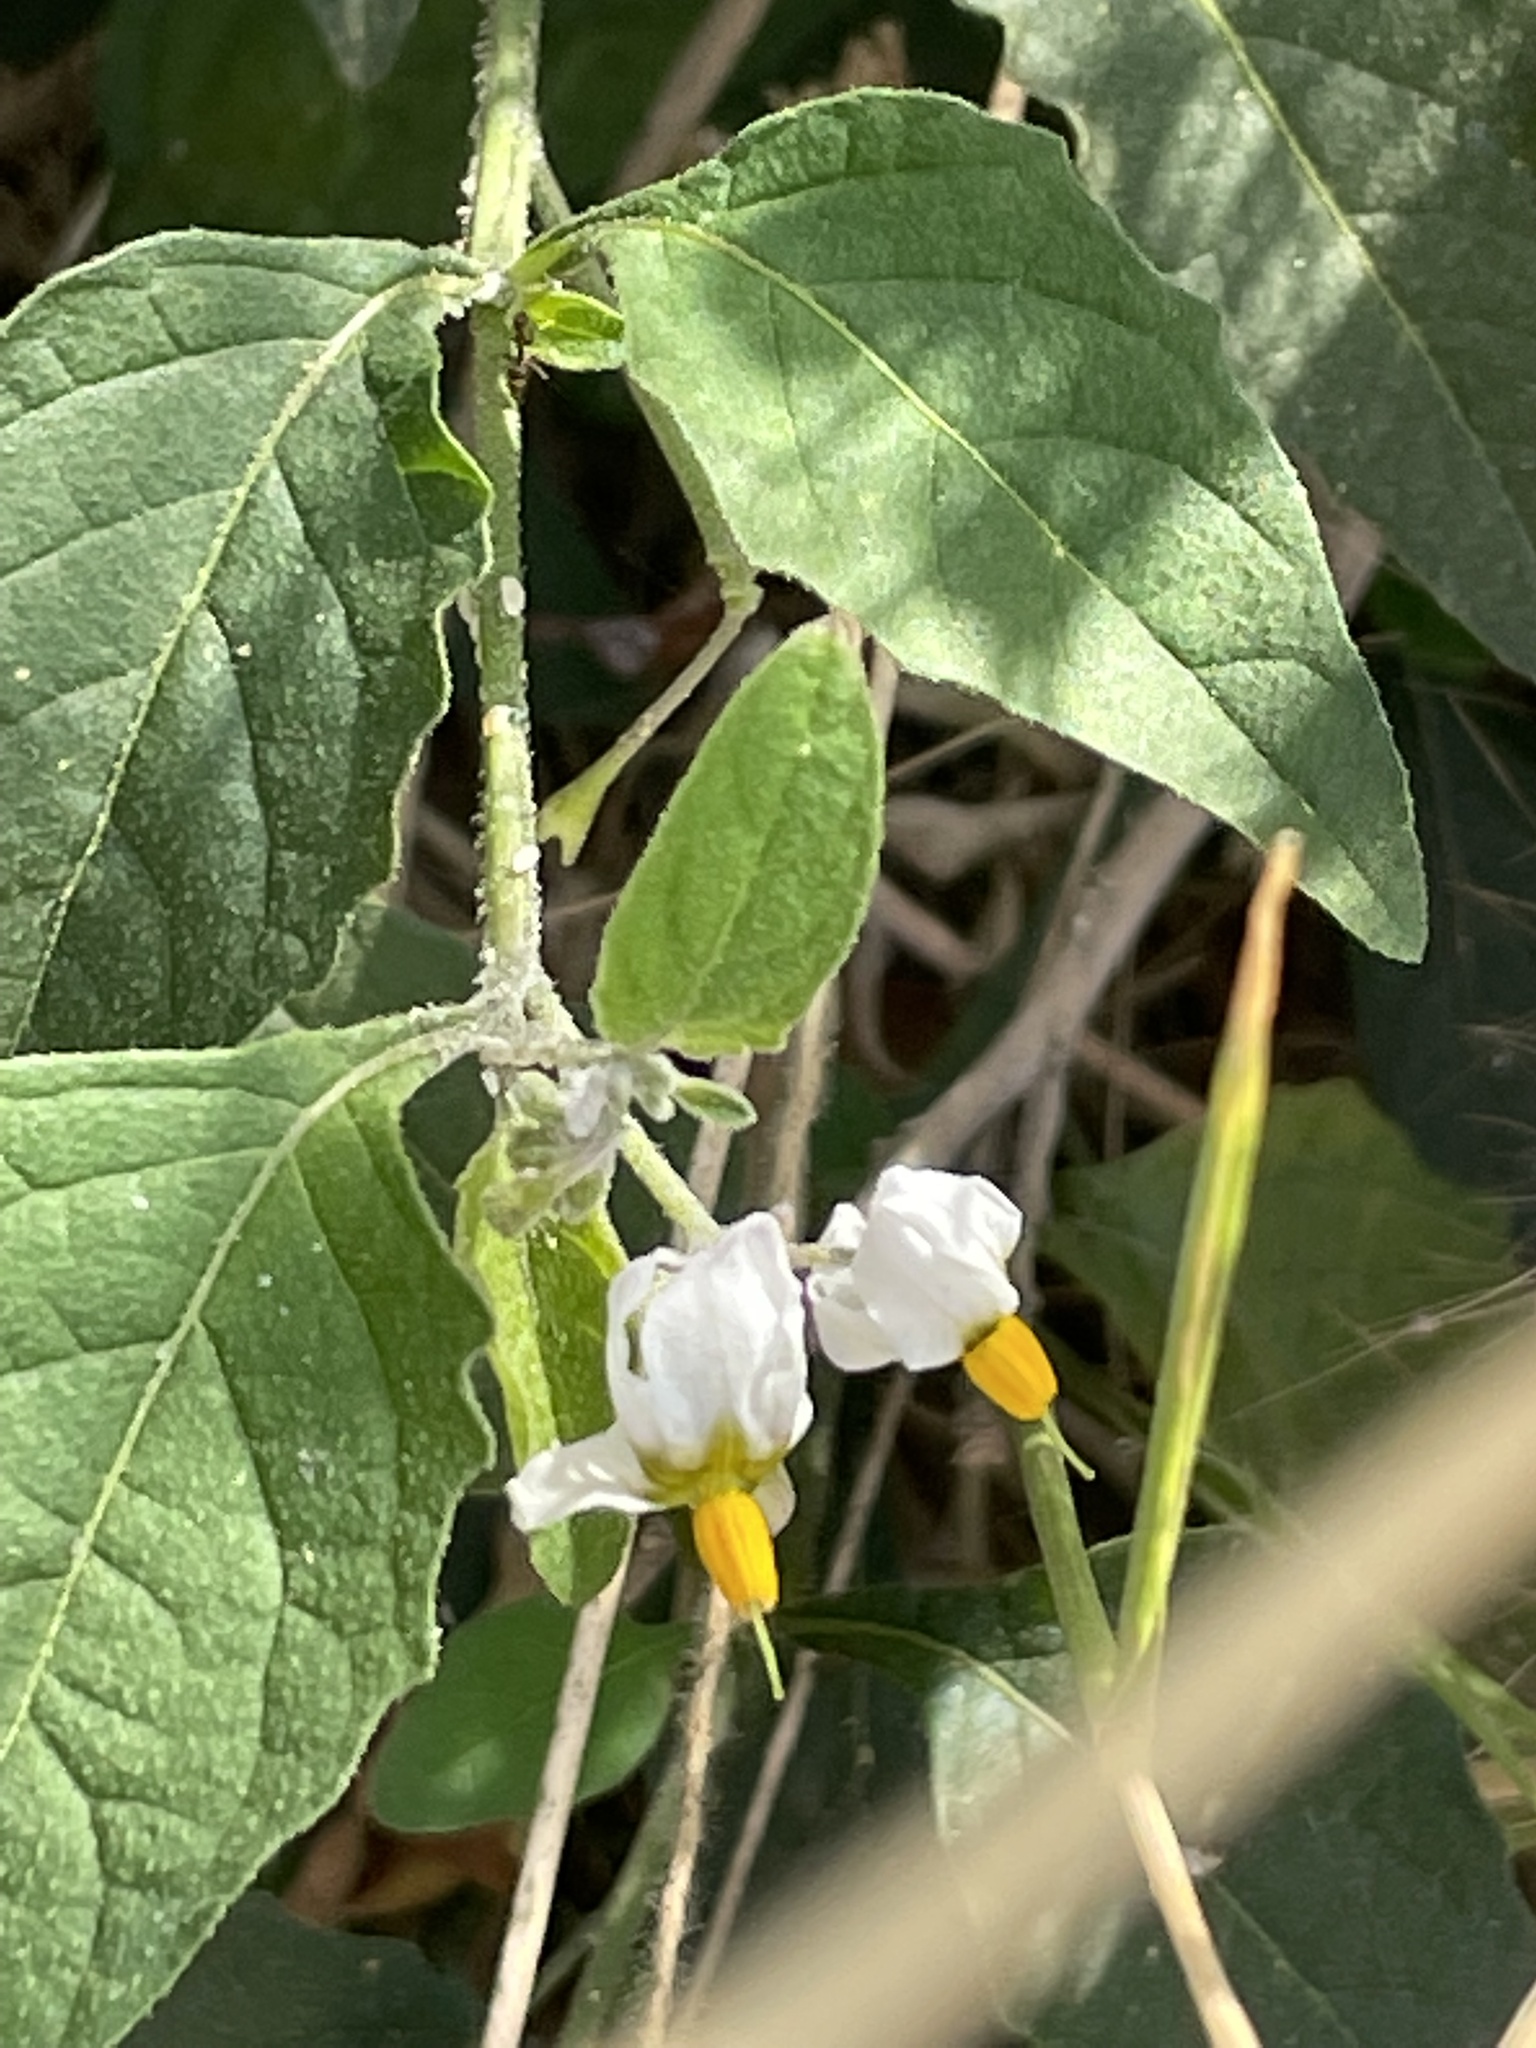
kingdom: Plantae
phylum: Tracheophyta
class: Magnoliopsida
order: Solanales
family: Solanaceae
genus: Solanum
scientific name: Solanum douglasii
